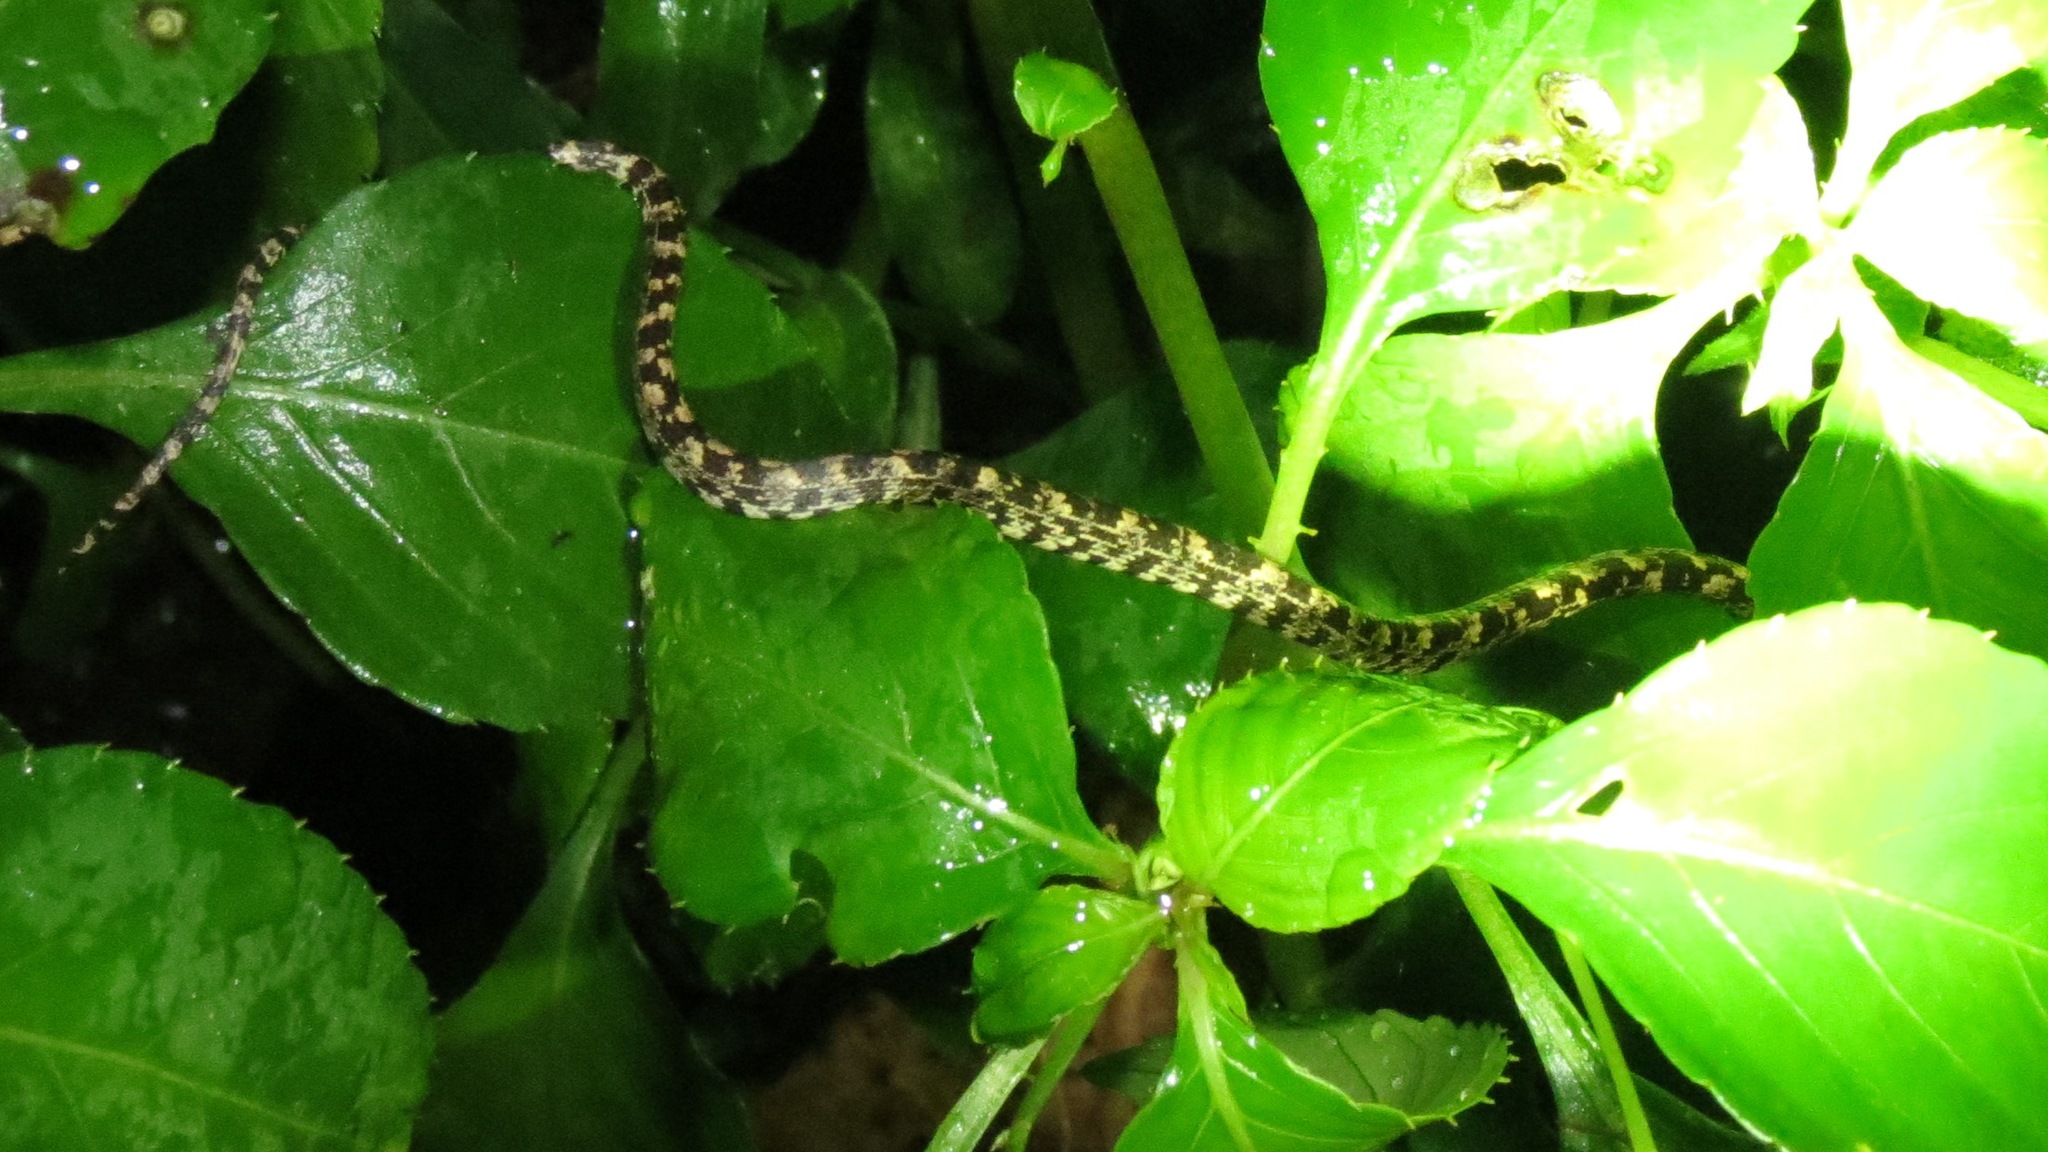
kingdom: Animalia
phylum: Chordata
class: Squamata
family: Colubridae
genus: Sibon
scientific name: Sibon nebulatus
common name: Cloudy snail-eating snake
